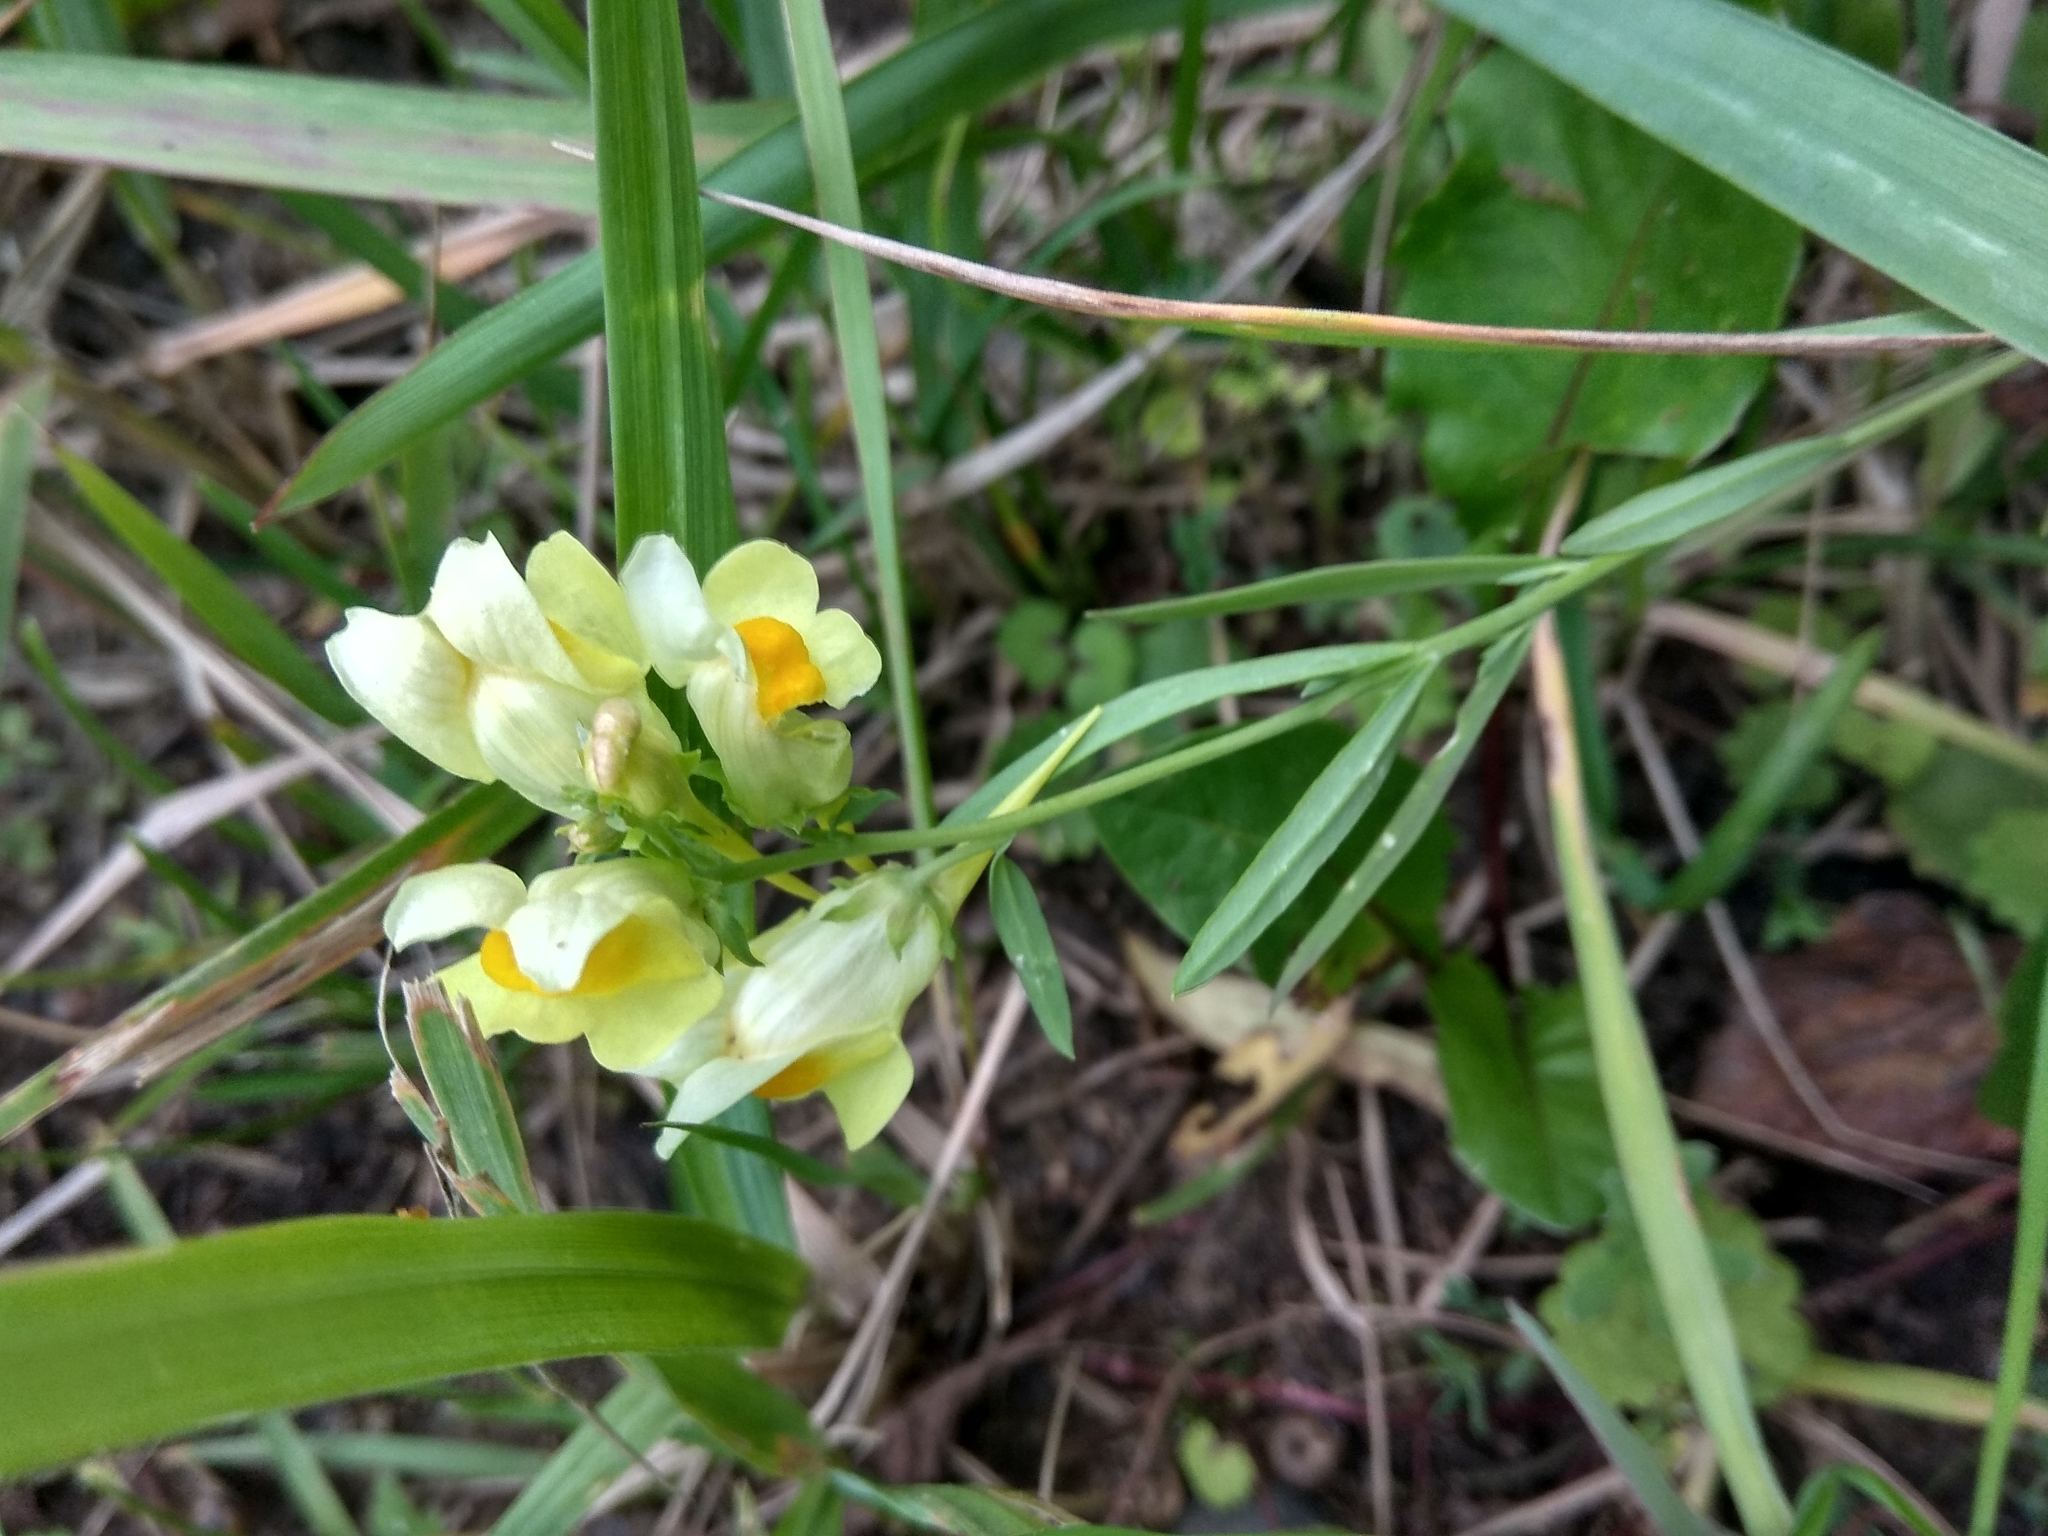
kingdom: Plantae
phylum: Tracheophyta
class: Magnoliopsida
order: Lamiales
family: Plantaginaceae
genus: Linaria
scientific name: Linaria vulgaris
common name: Butter and eggs
